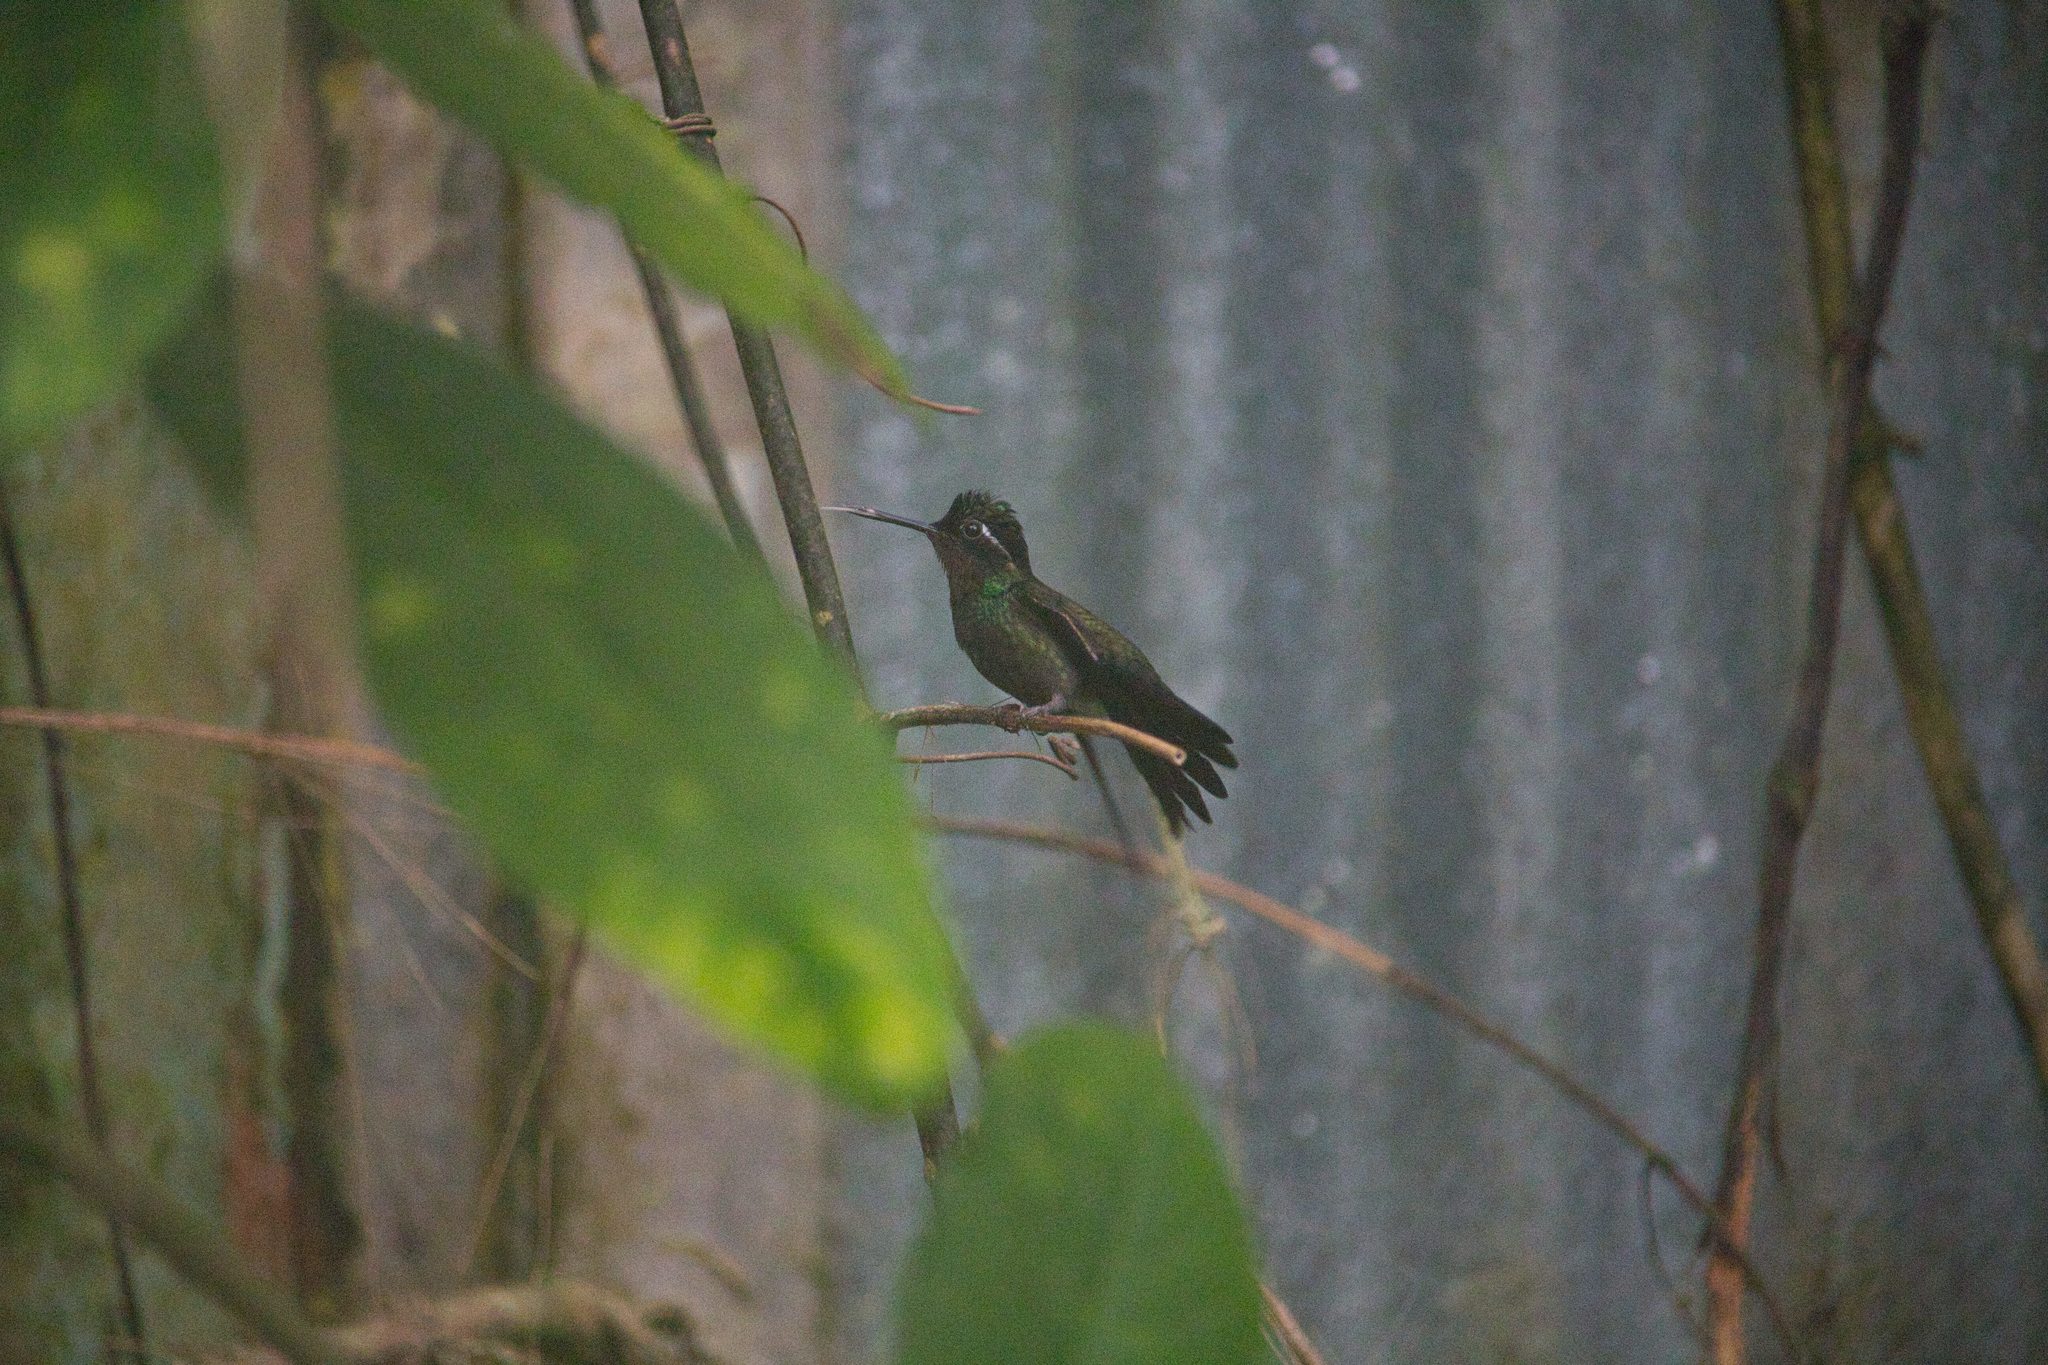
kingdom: Animalia
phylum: Chordata
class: Aves
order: Apodiformes
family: Trochilidae
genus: Lampornis
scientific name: Lampornis calolaemus
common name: Purple-throated mountain-gem
